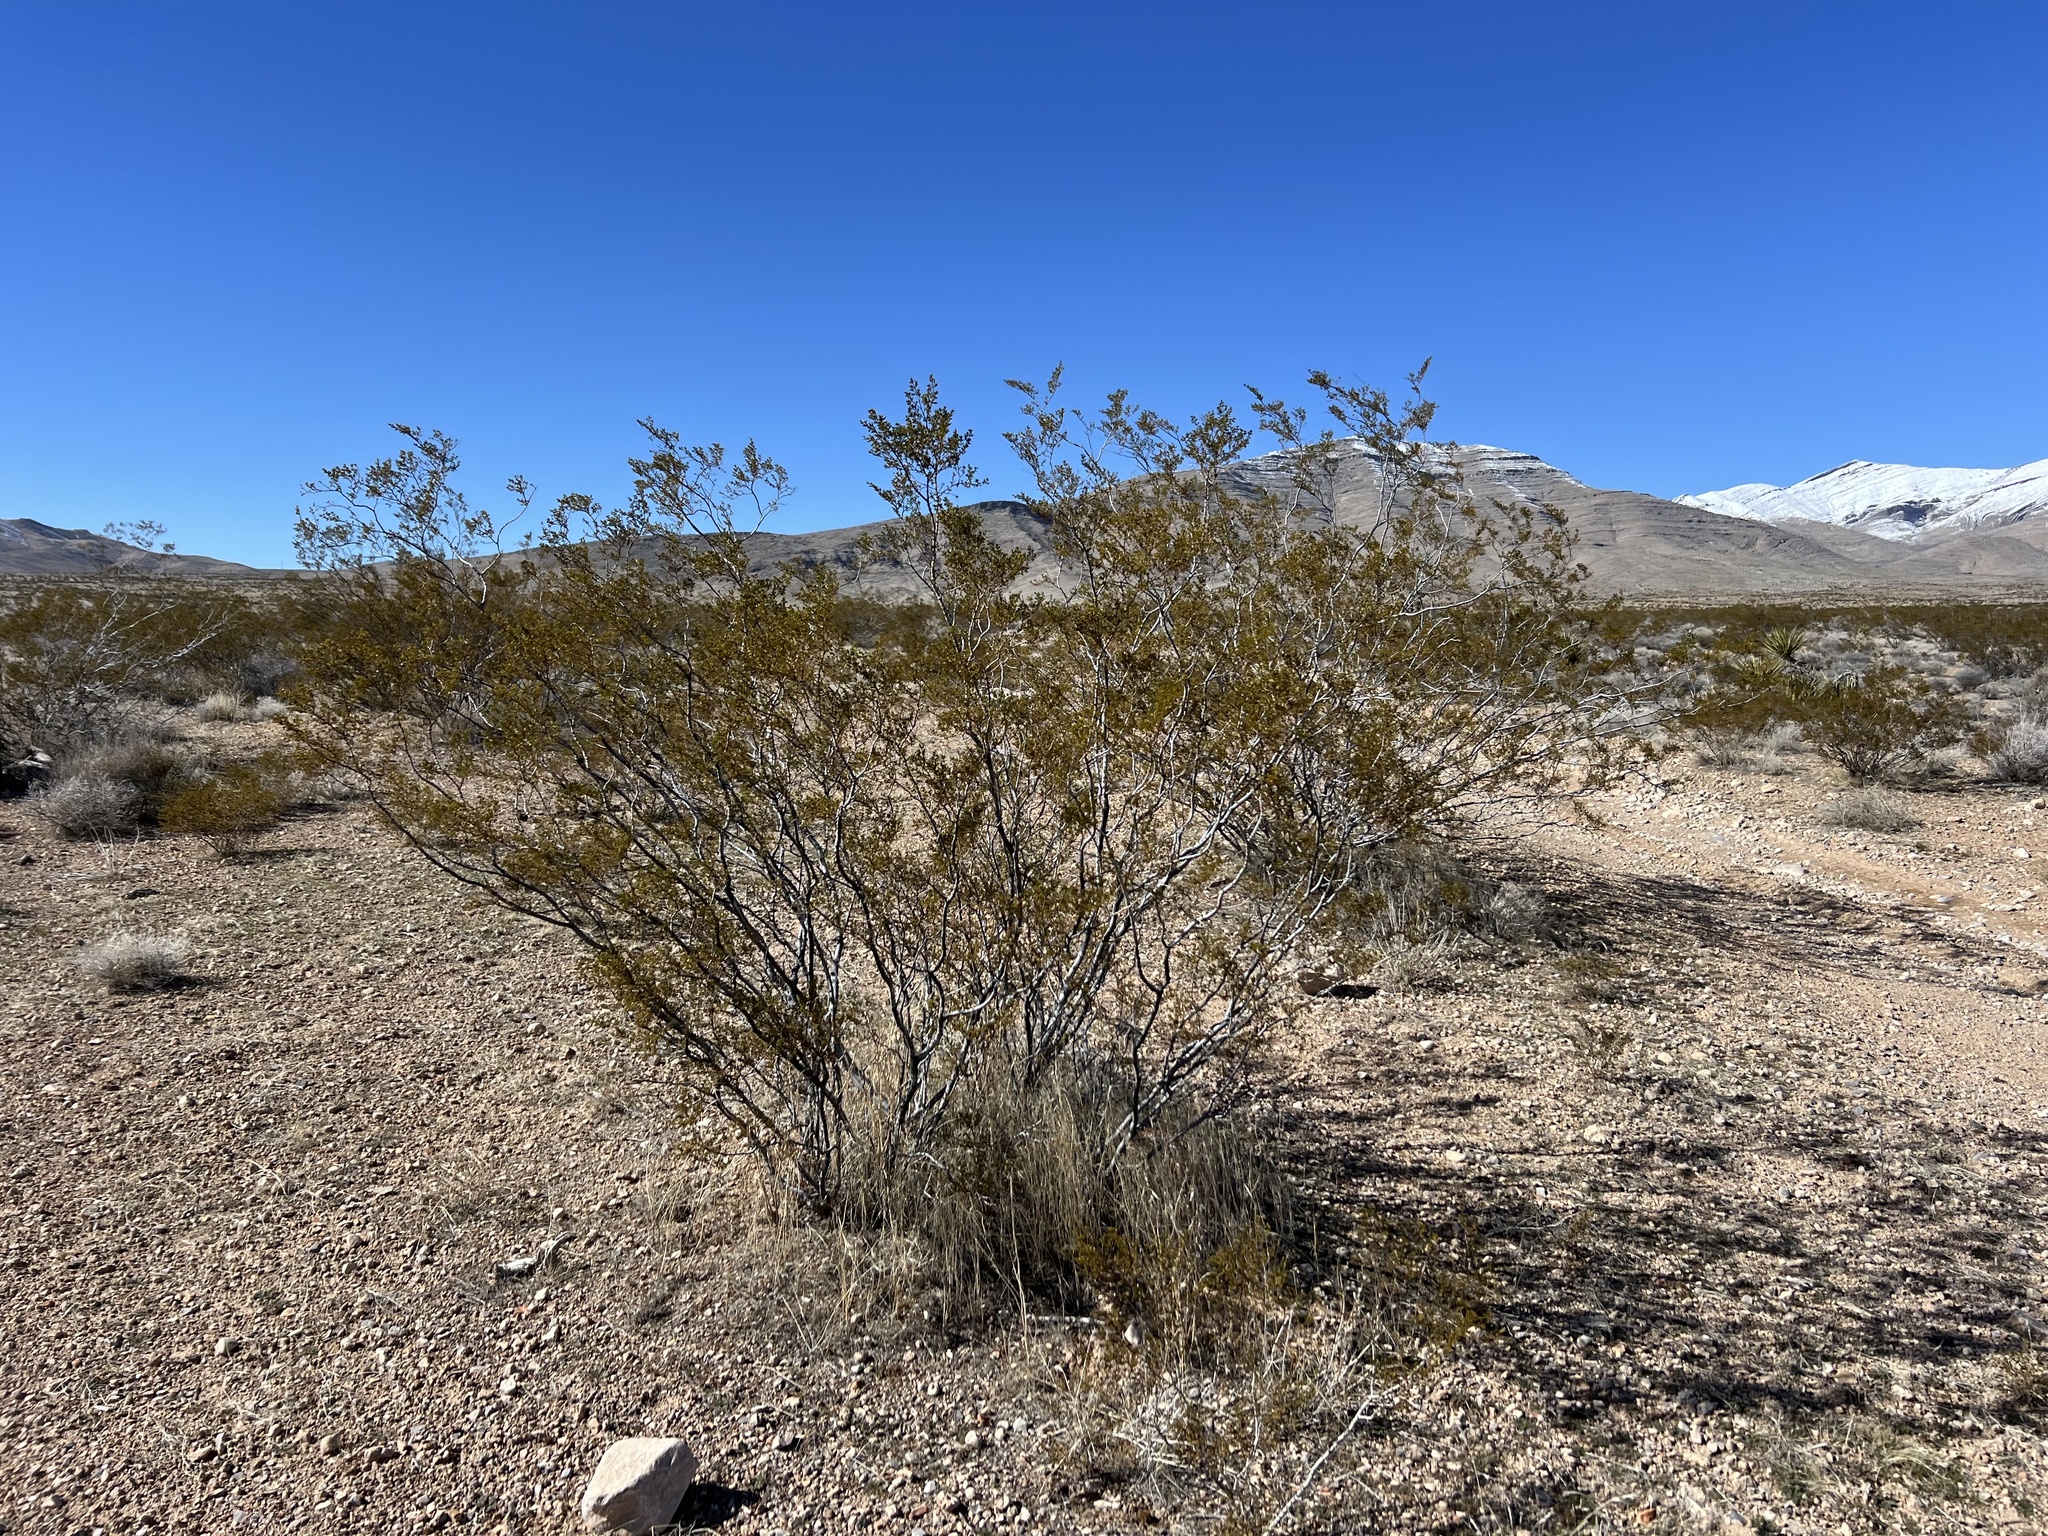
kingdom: Plantae
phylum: Tracheophyta
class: Magnoliopsida
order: Zygophyllales
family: Zygophyllaceae
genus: Larrea
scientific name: Larrea tridentata
